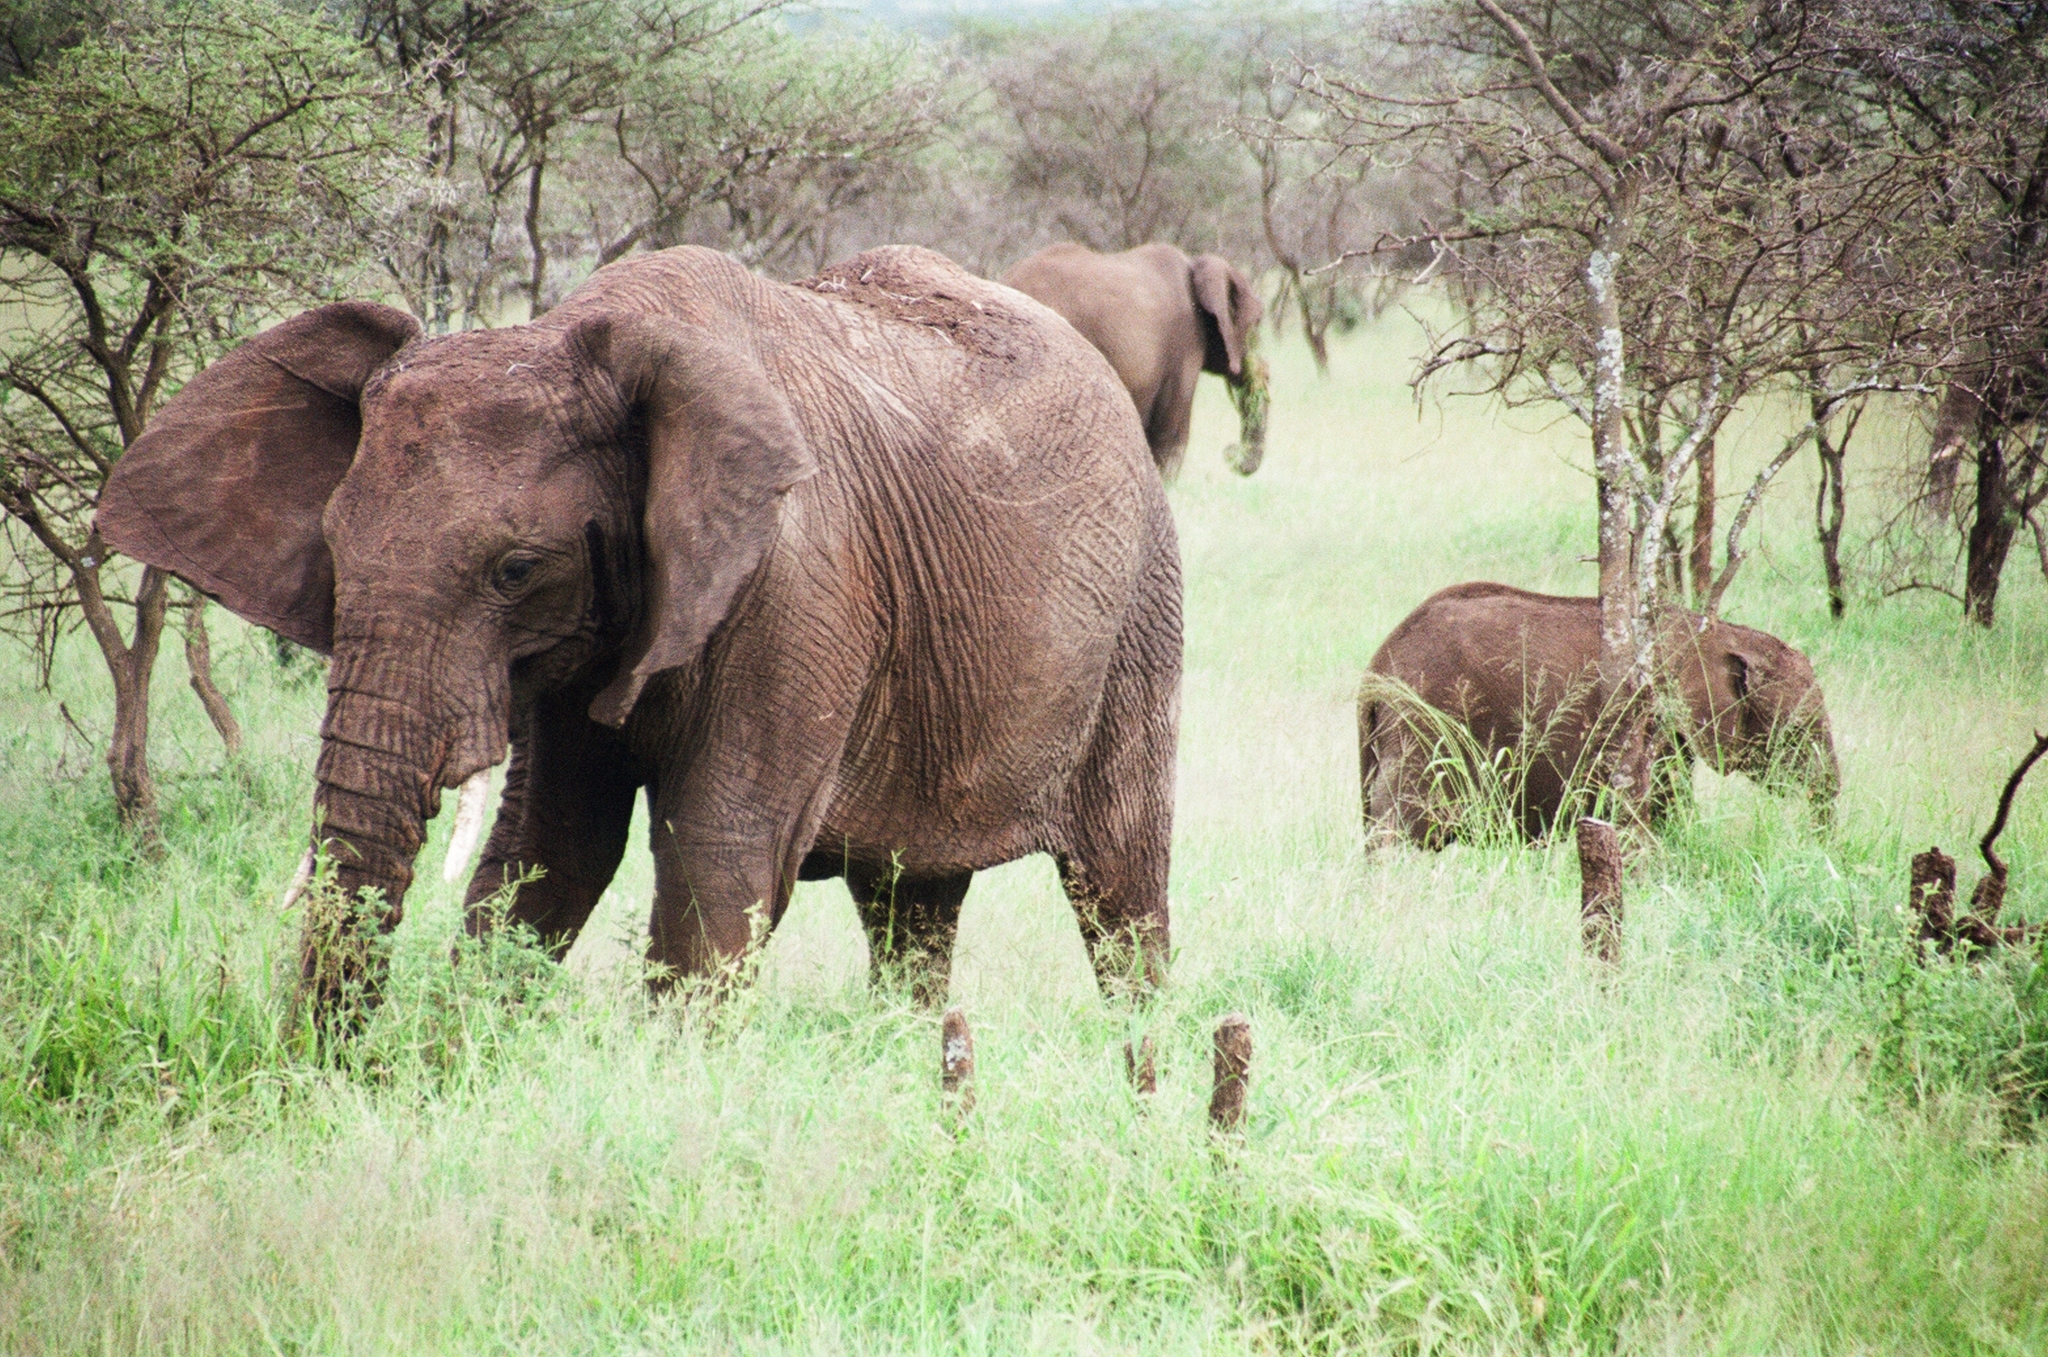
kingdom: Animalia
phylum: Chordata
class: Mammalia
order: Proboscidea
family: Elephantidae
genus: Loxodonta
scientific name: Loxodonta africana
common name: African elephant
